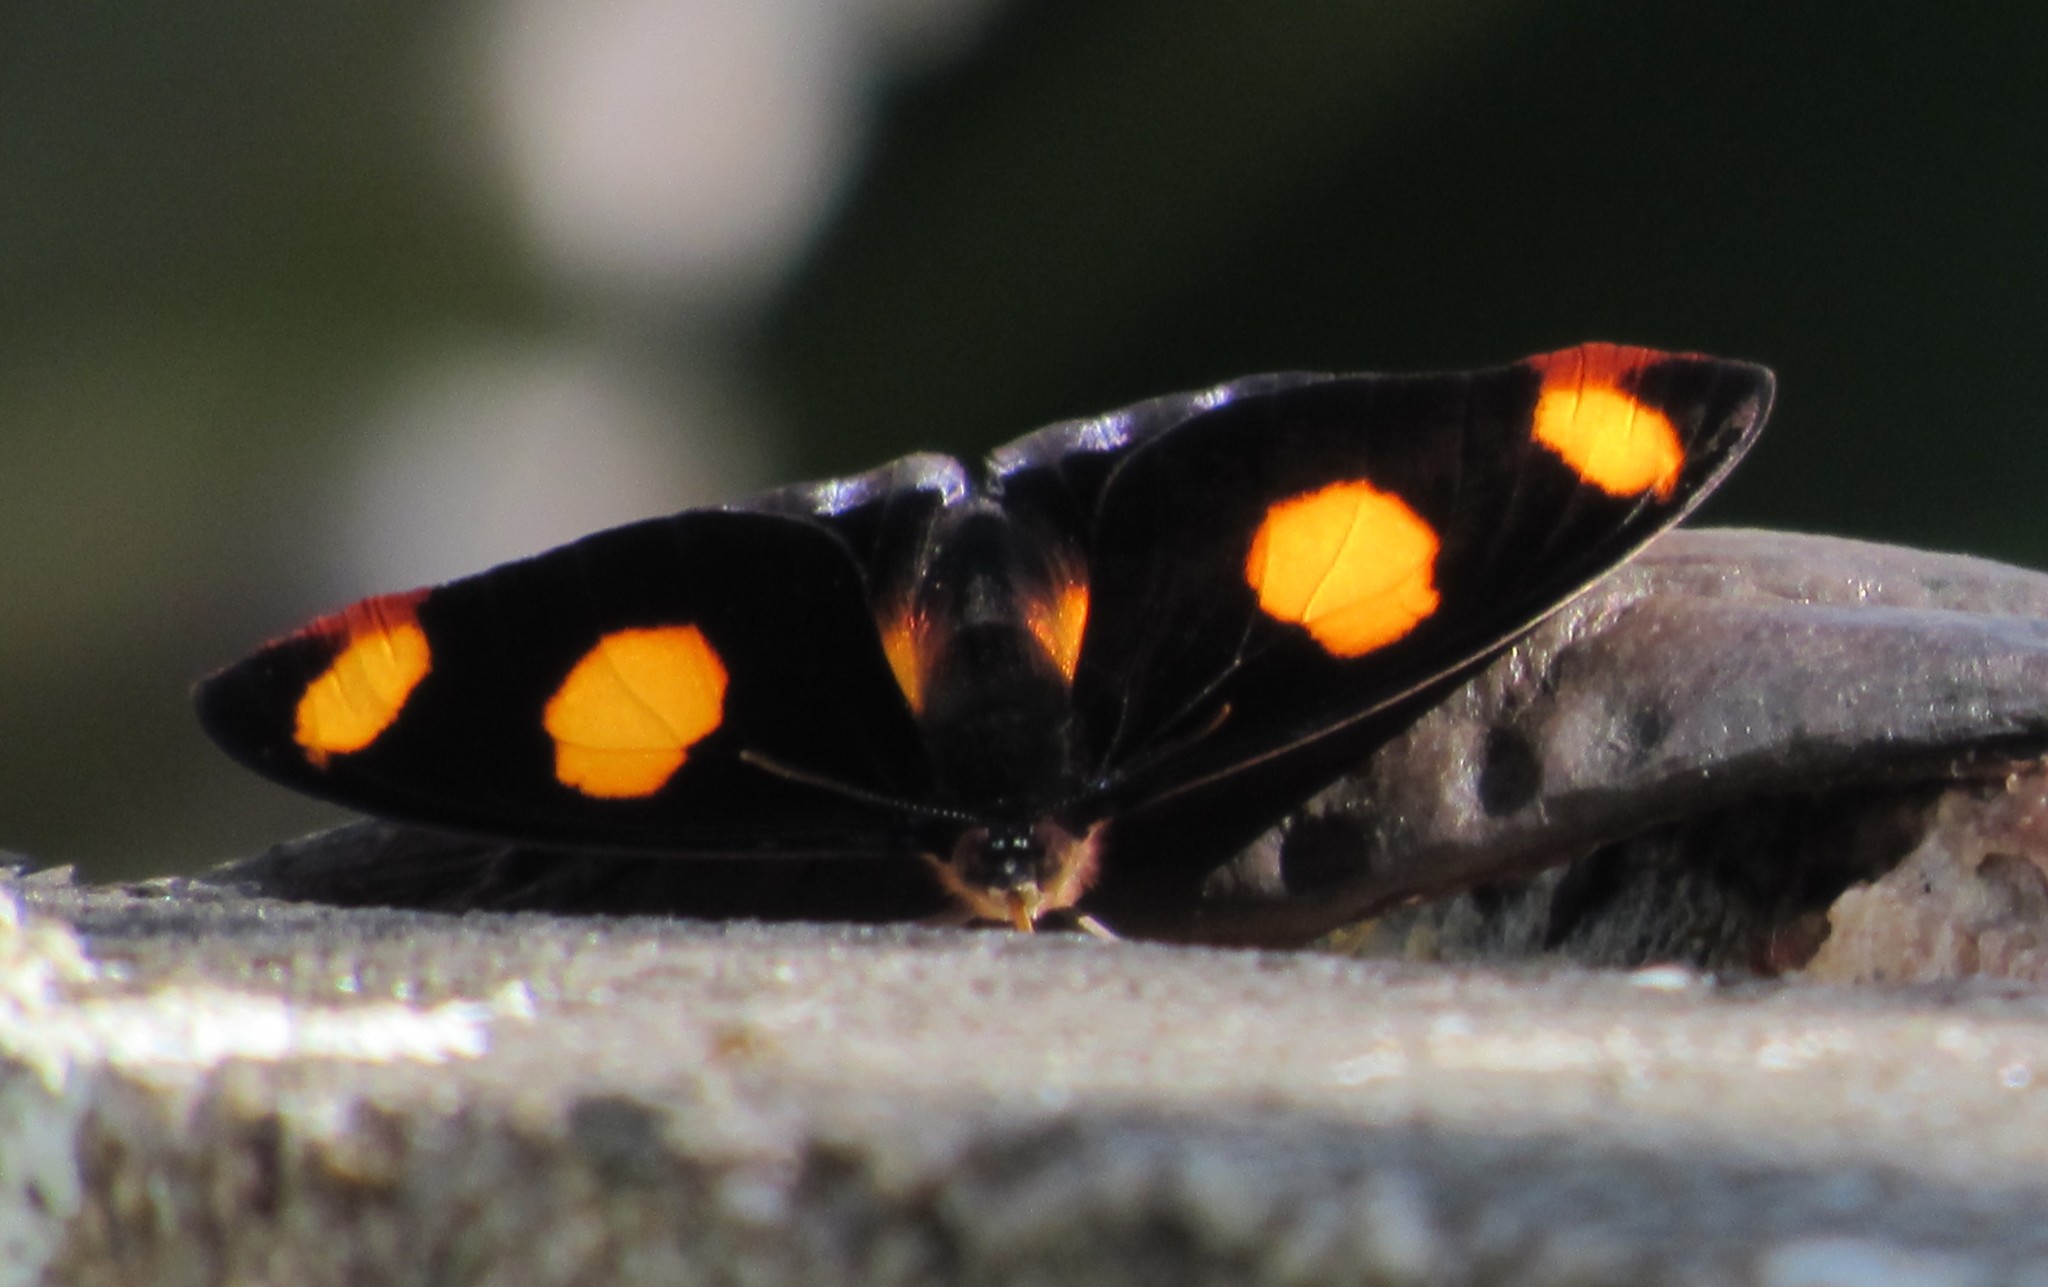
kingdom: Animalia
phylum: Arthropoda
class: Insecta
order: Lepidoptera
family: Nymphalidae
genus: Catonephele
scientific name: Catonephele numilia
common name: Blue-frosted banner
